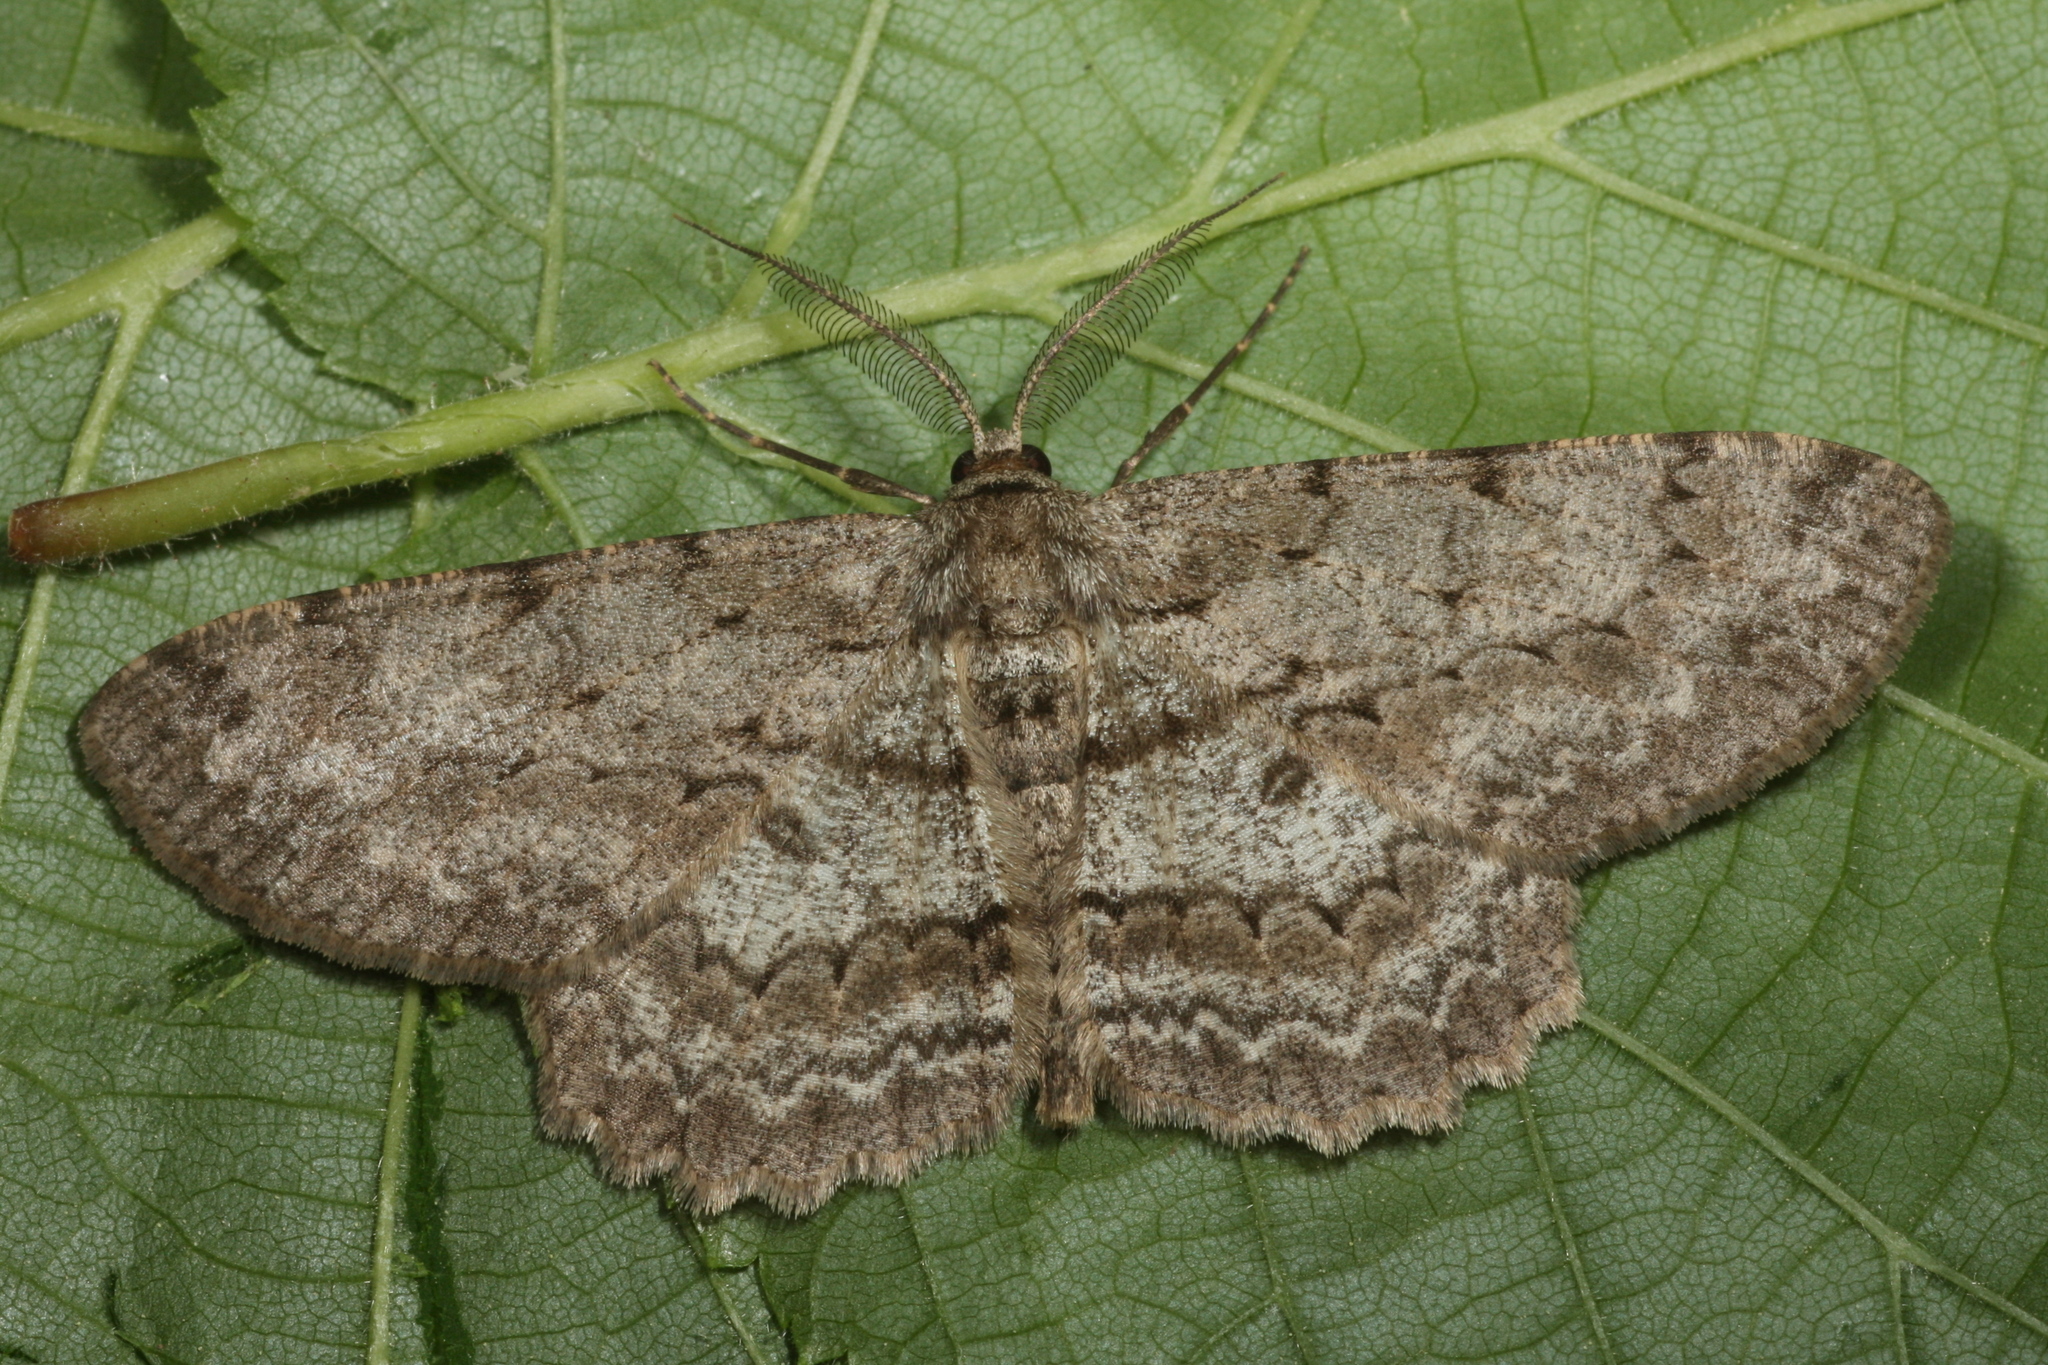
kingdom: Animalia
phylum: Arthropoda
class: Insecta
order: Lepidoptera
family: Geometridae
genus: Hypomecis
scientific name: Hypomecis punctinalis
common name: Pale oak beauty
